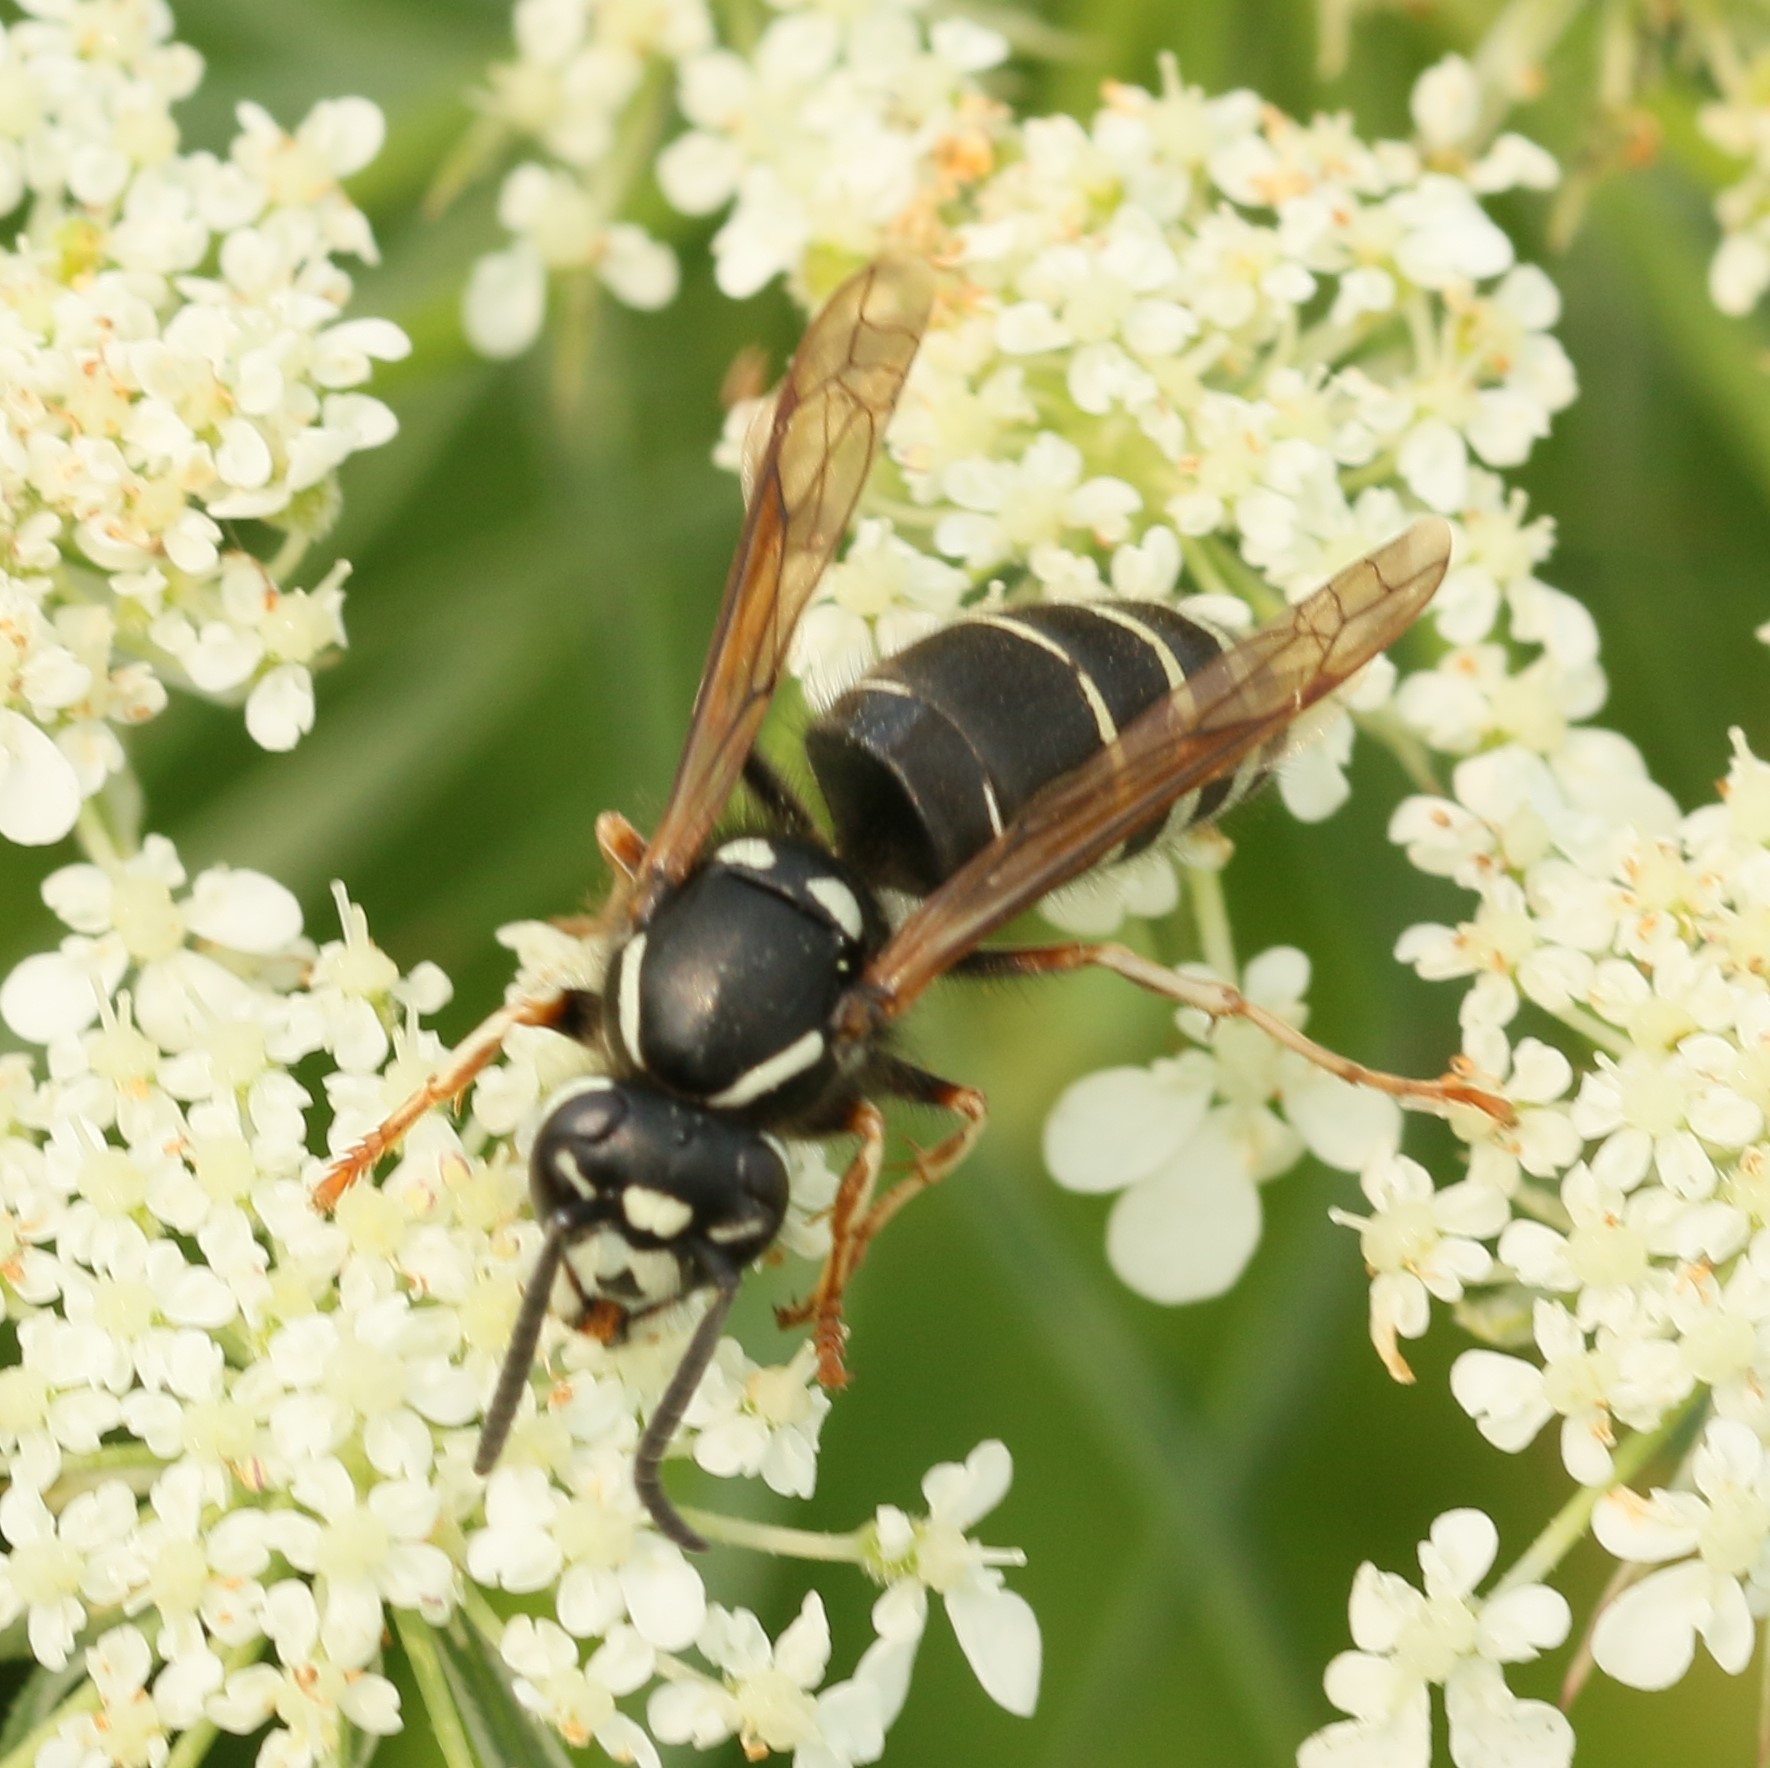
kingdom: Animalia
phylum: Arthropoda
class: Insecta
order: Hymenoptera
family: Vespidae
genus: Vespula
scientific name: Vespula consobrina
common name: Blackjacket
